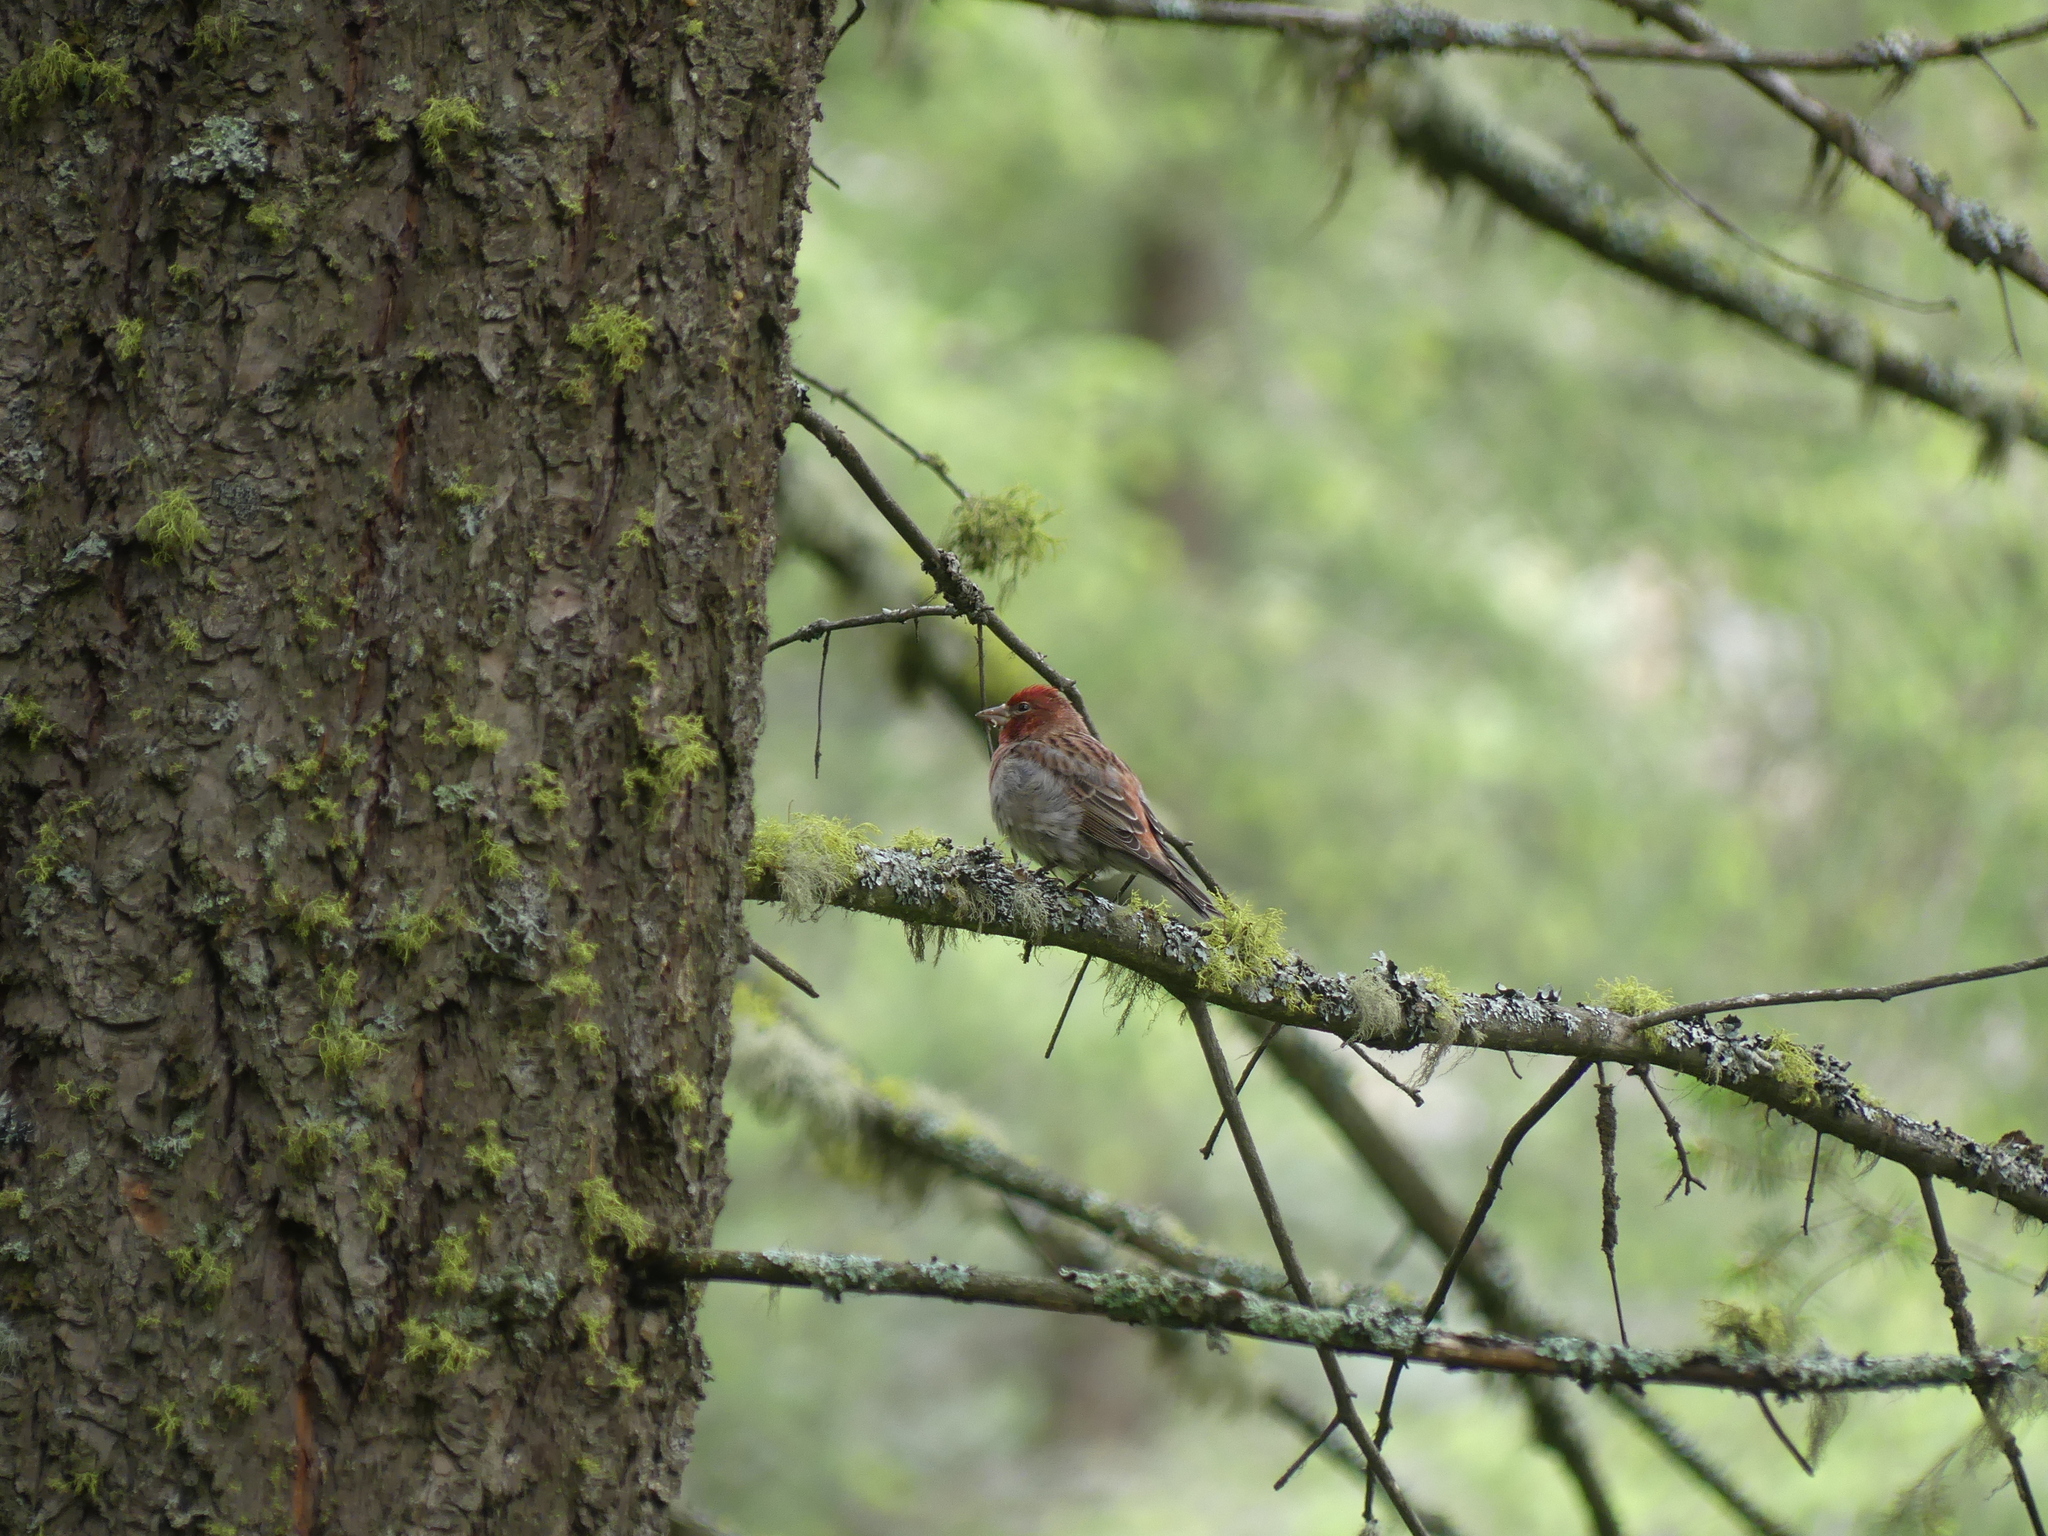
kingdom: Animalia
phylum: Chordata
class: Aves
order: Passeriformes
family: Fringillidae
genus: Haemorhous
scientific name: Haemorhous cassinii
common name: Cassin's finch
